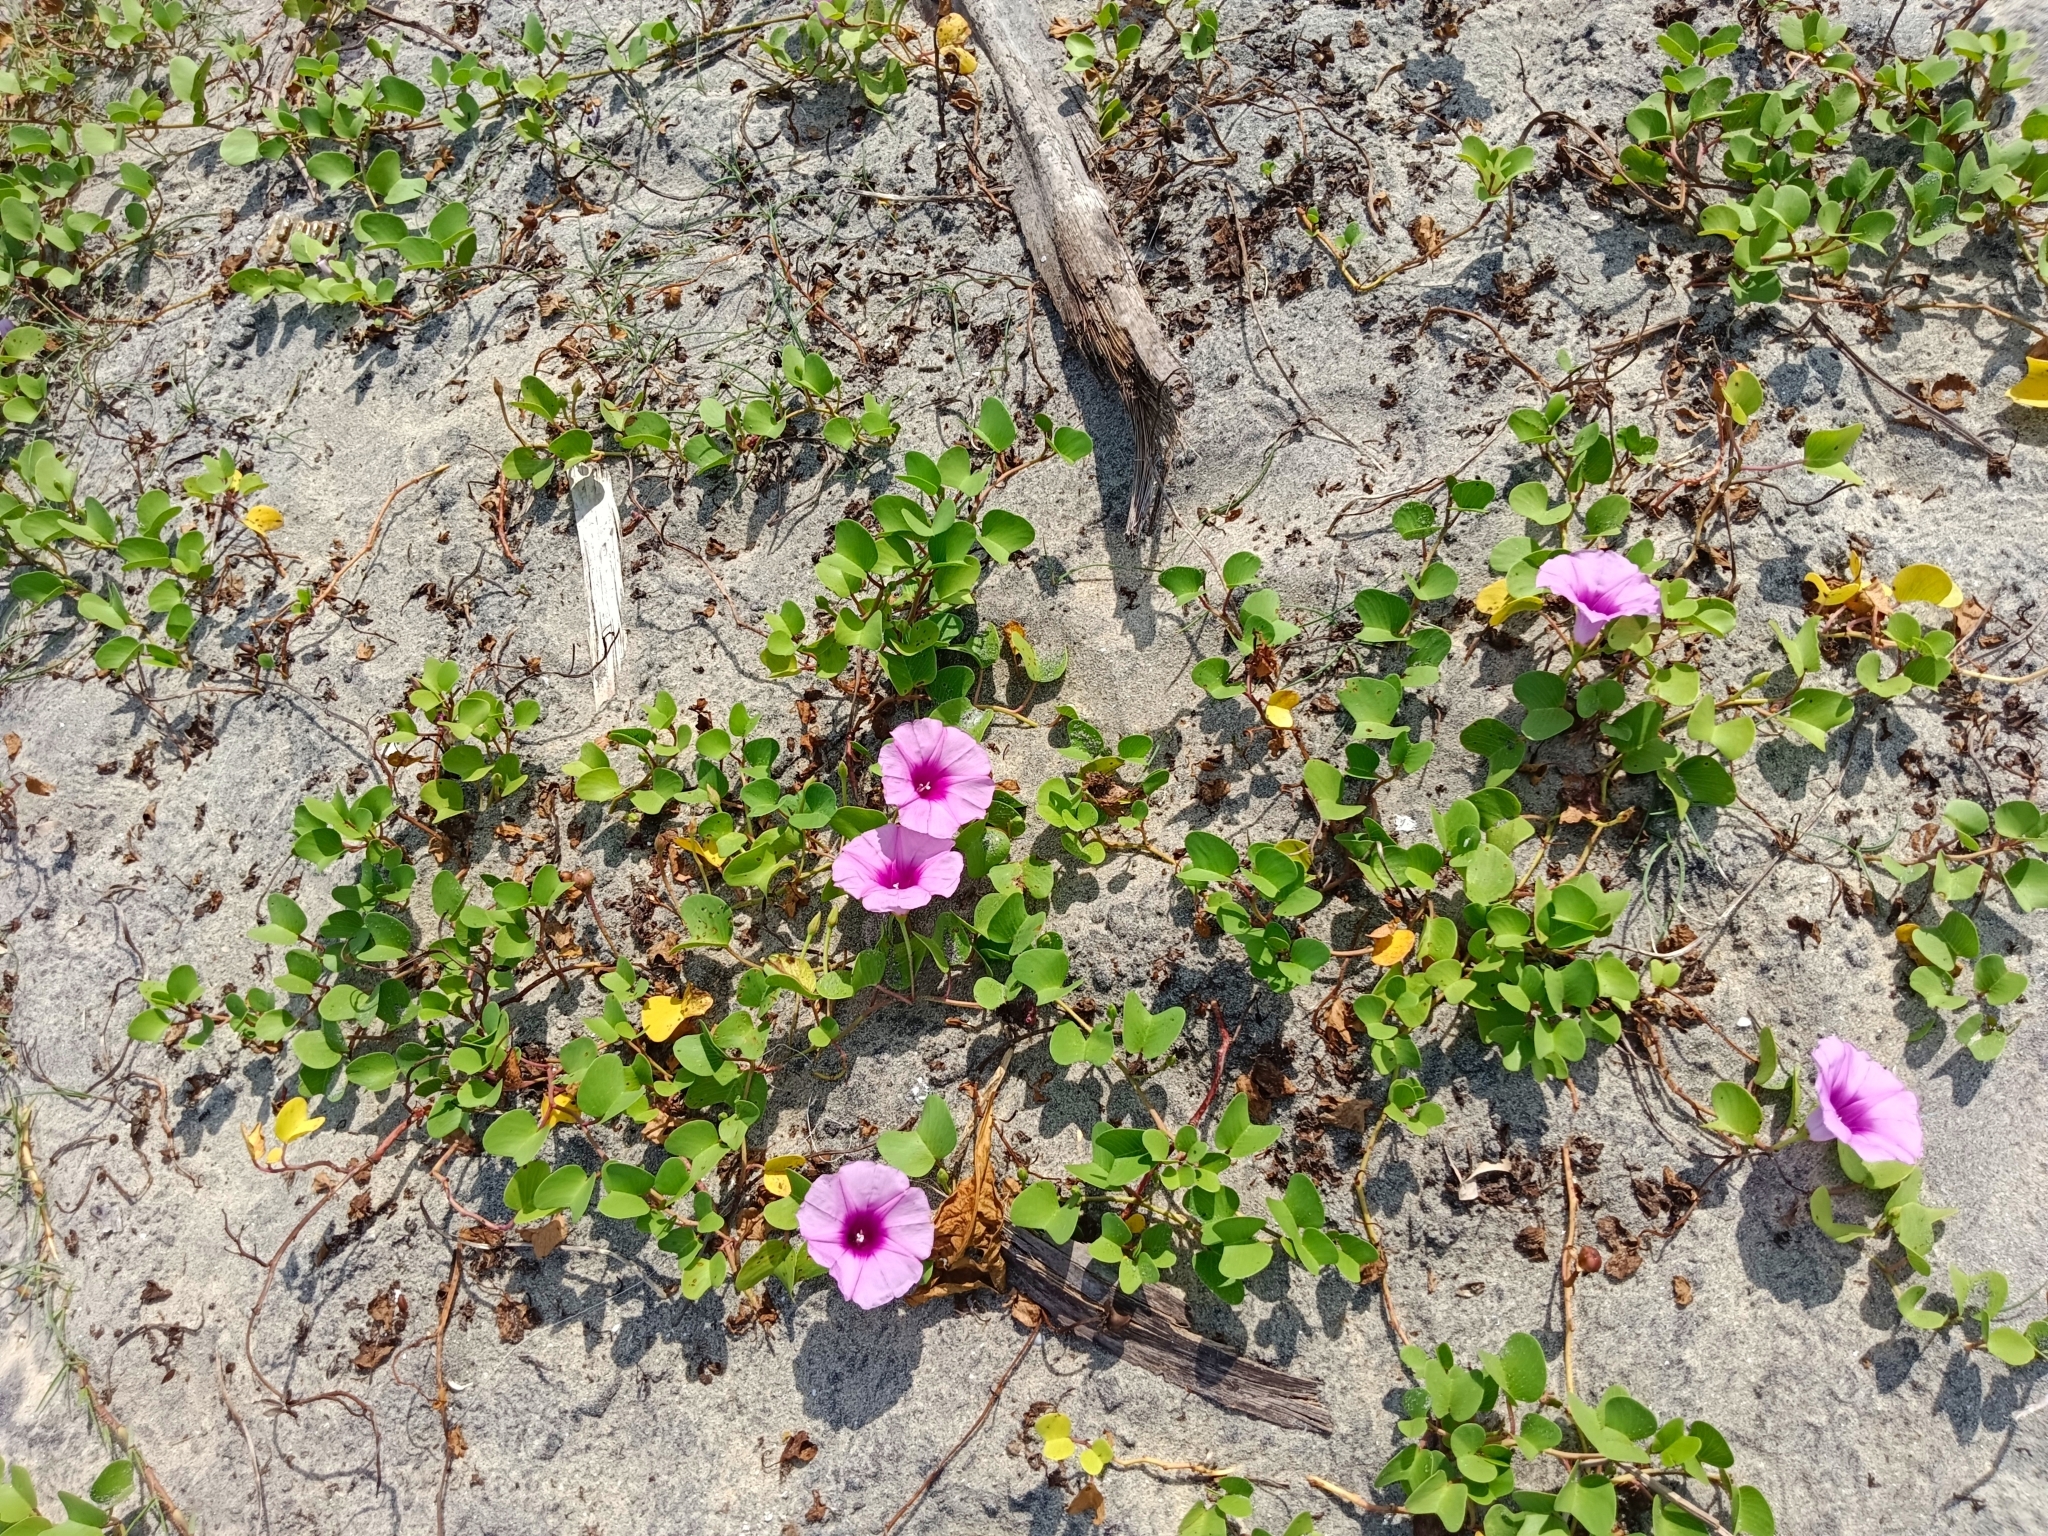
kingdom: Plantae
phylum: Tracheophyta
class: Magnoliopsida
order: Solanales
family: Convolvulaceae
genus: Ipomoea
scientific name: Ipomoea pes-caprae
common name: Beach morning glory
